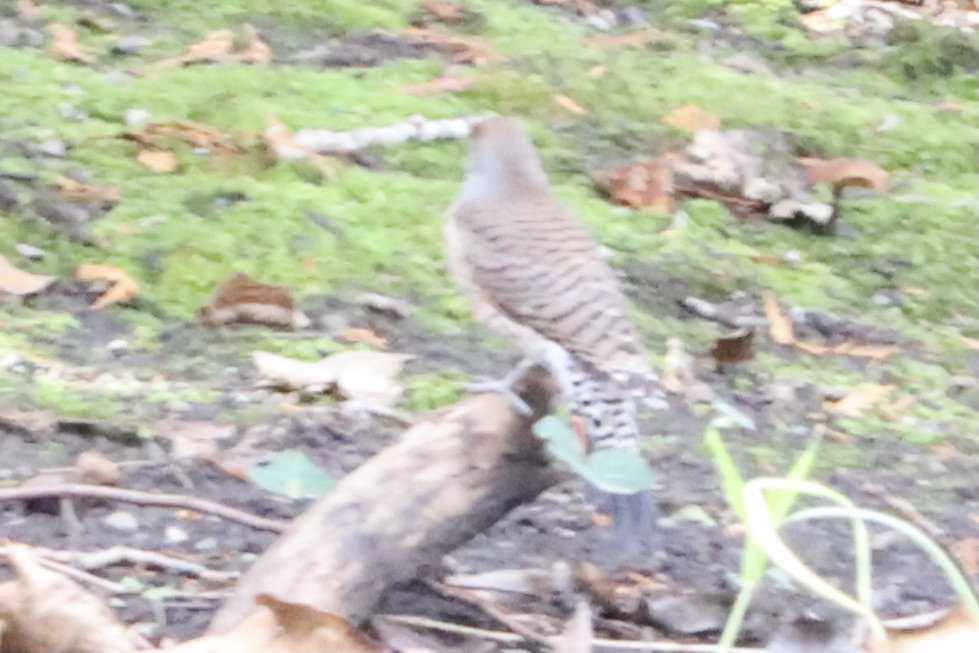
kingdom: Animalia
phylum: Chordata
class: Aves
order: Piciformes
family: Picidae
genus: Colaptes
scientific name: Colaptes auratus
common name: Northern flicker
